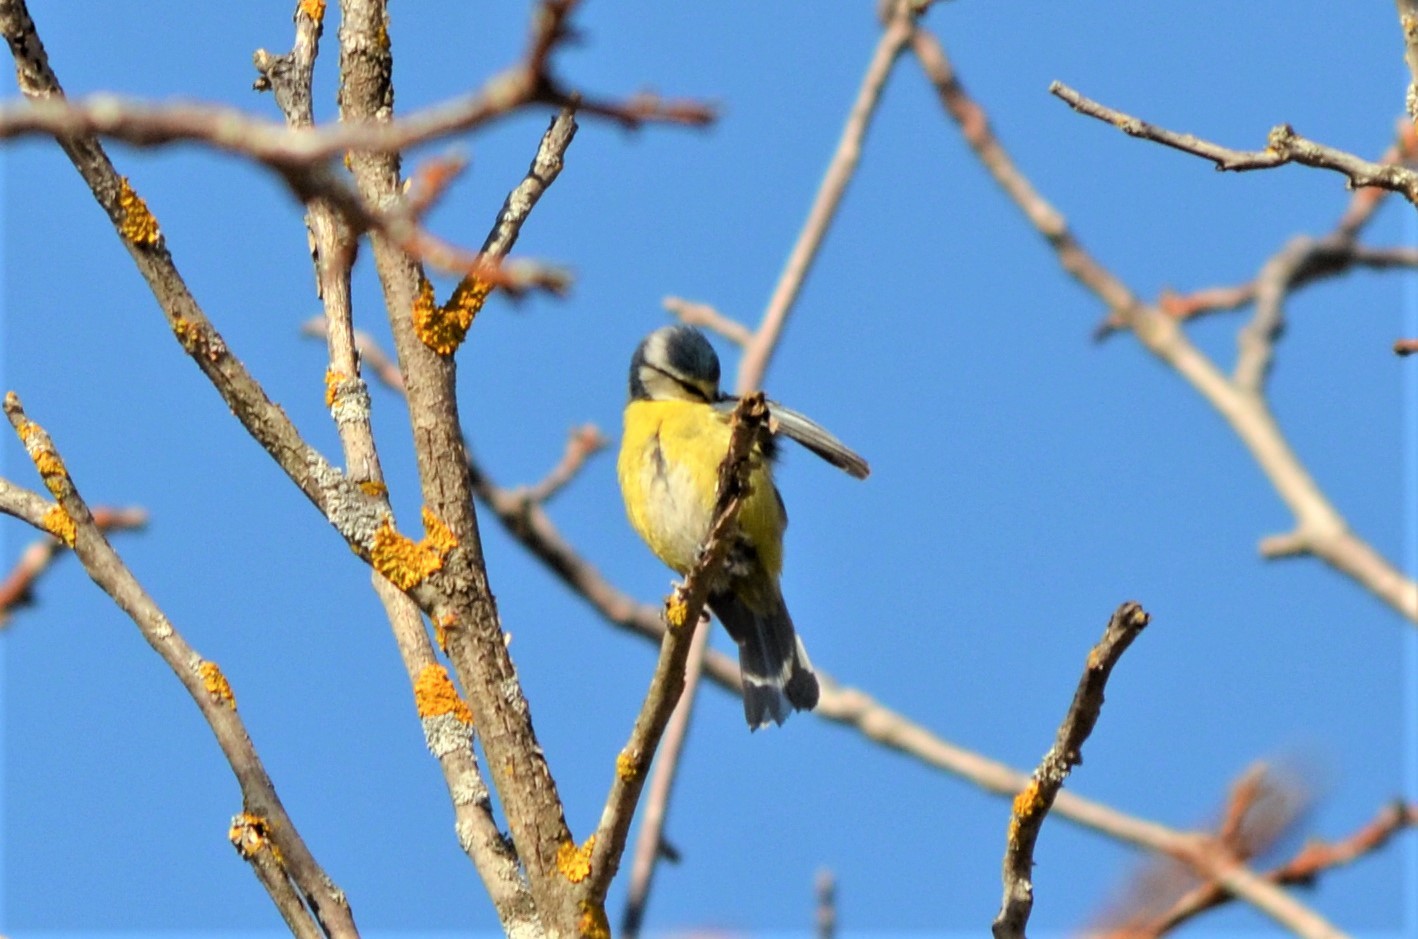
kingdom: Animalia
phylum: Chordata
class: Aves
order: Passeriformes
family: Paridae
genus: Cyanistes
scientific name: Cyanistes caeruleus
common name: Eurasian blue tit
